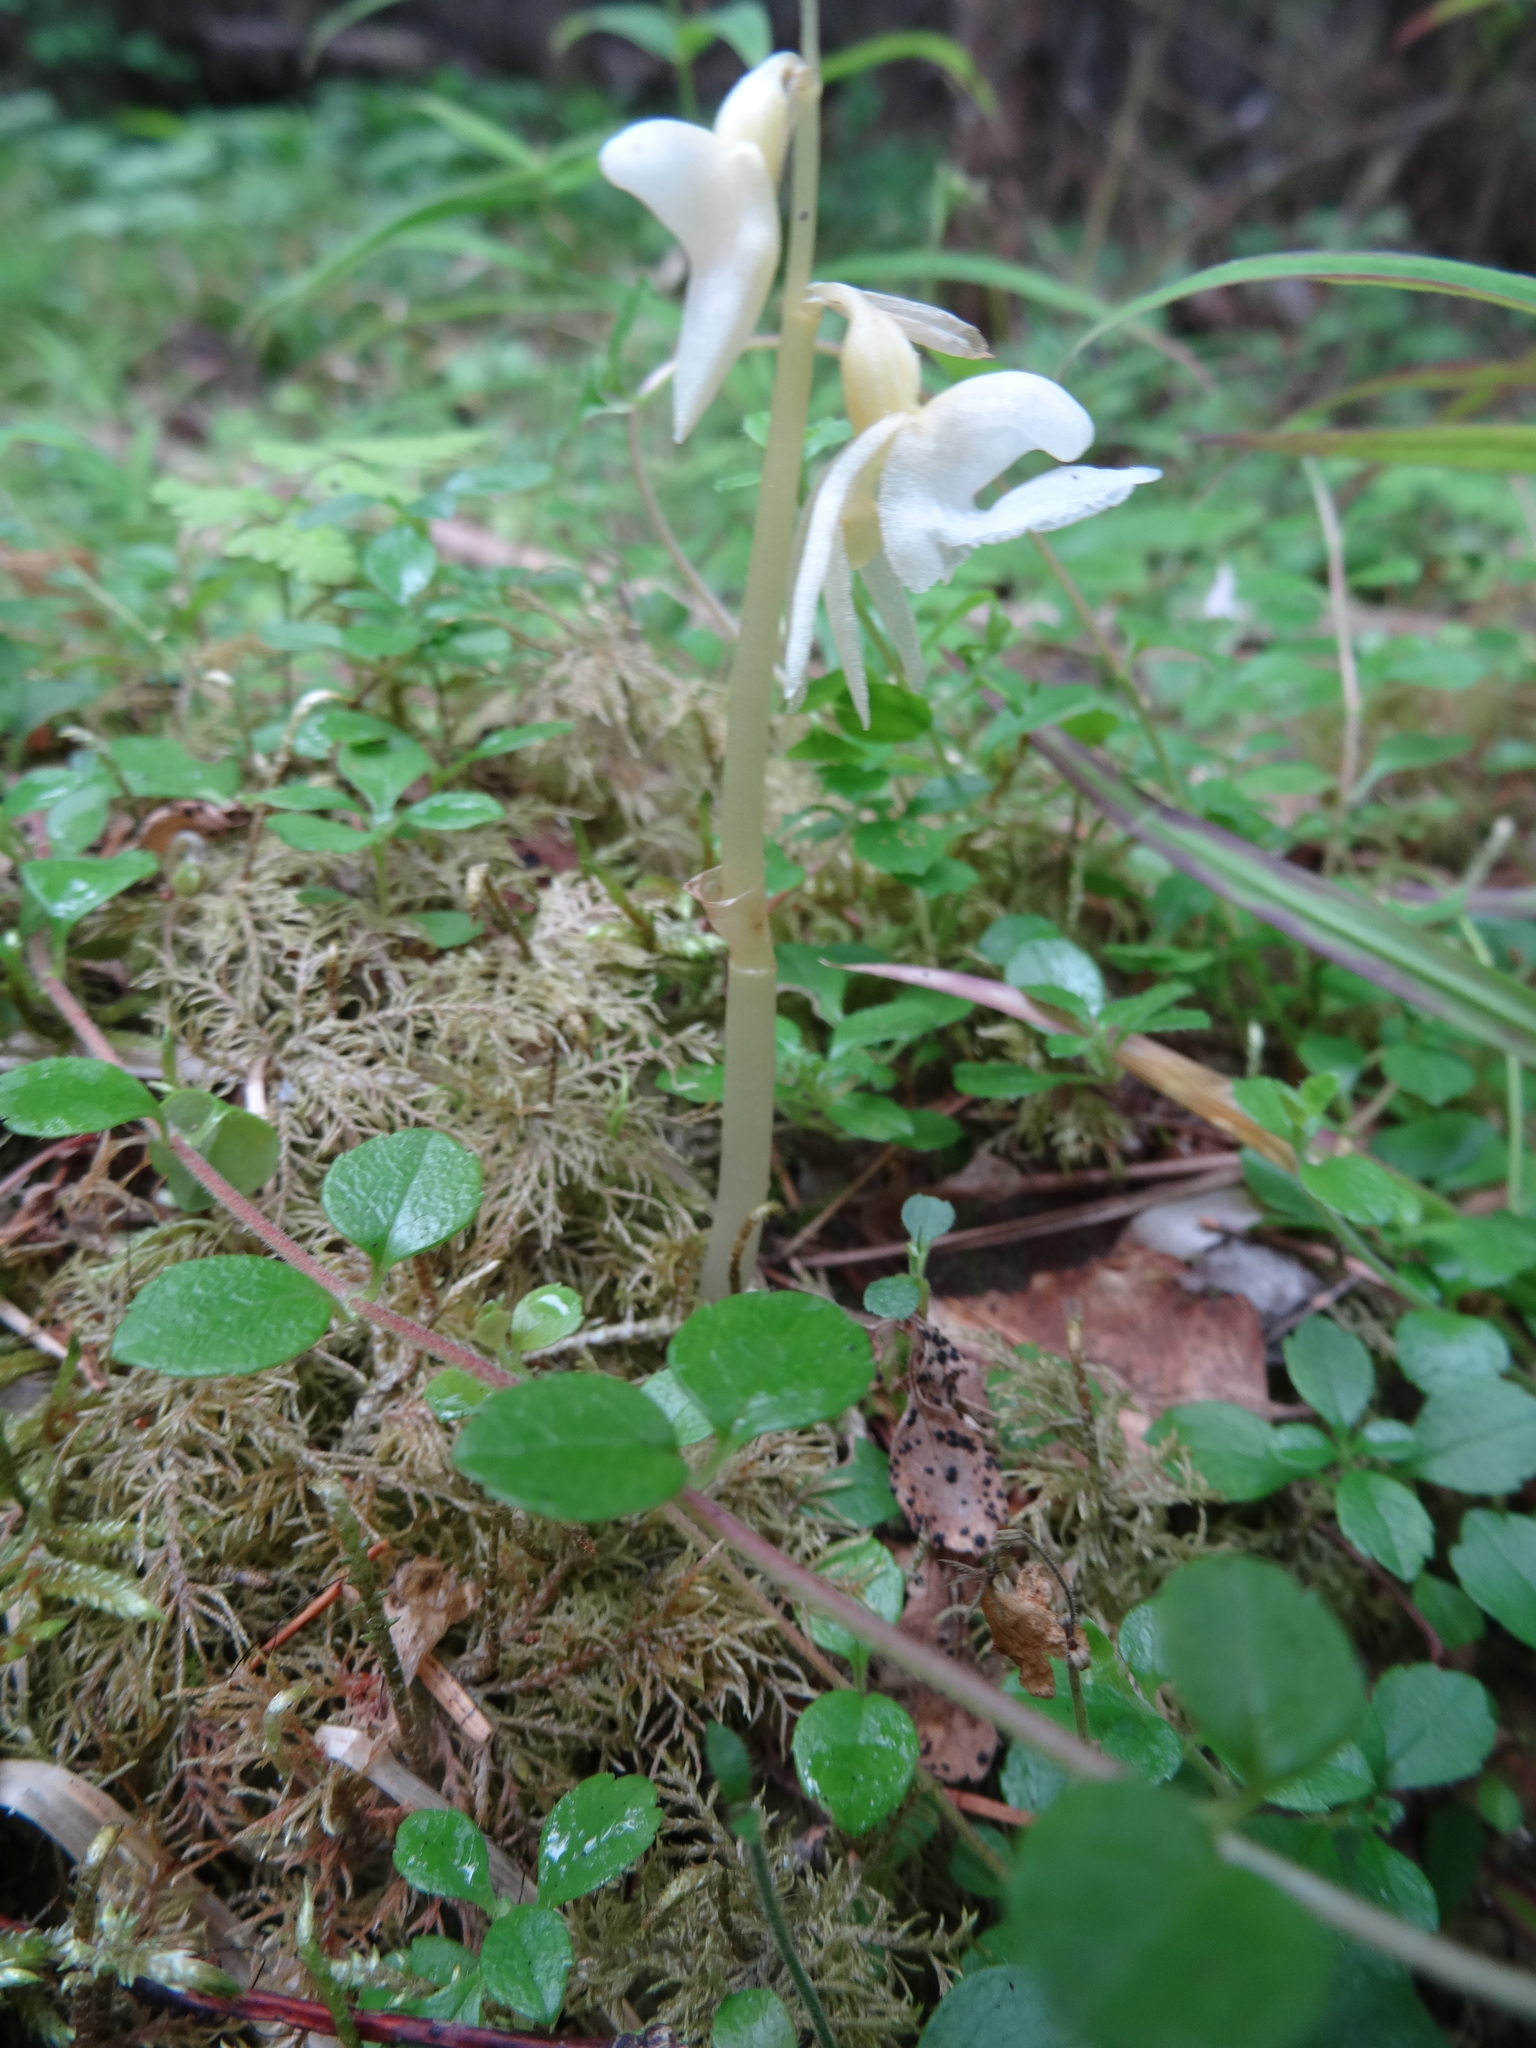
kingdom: Plantae
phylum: Tracheophyta
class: Liliopsida
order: Asparagales
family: Orchidaceae
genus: Epipogium
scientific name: Epipogium aphyllum
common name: Ghost orchid
